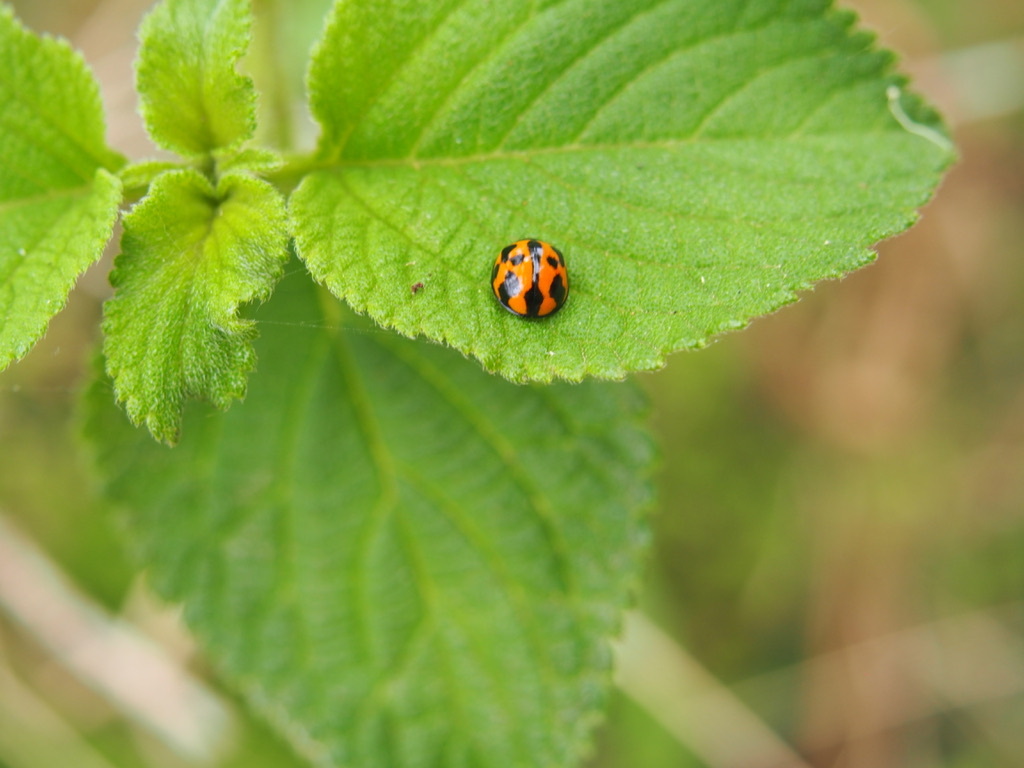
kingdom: Animalia
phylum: Arthropoda
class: Insecta
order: Coleoptera
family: Coccinellidae
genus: Coelophora
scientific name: Coelophora inaequalis
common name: Common australian lady beetle
